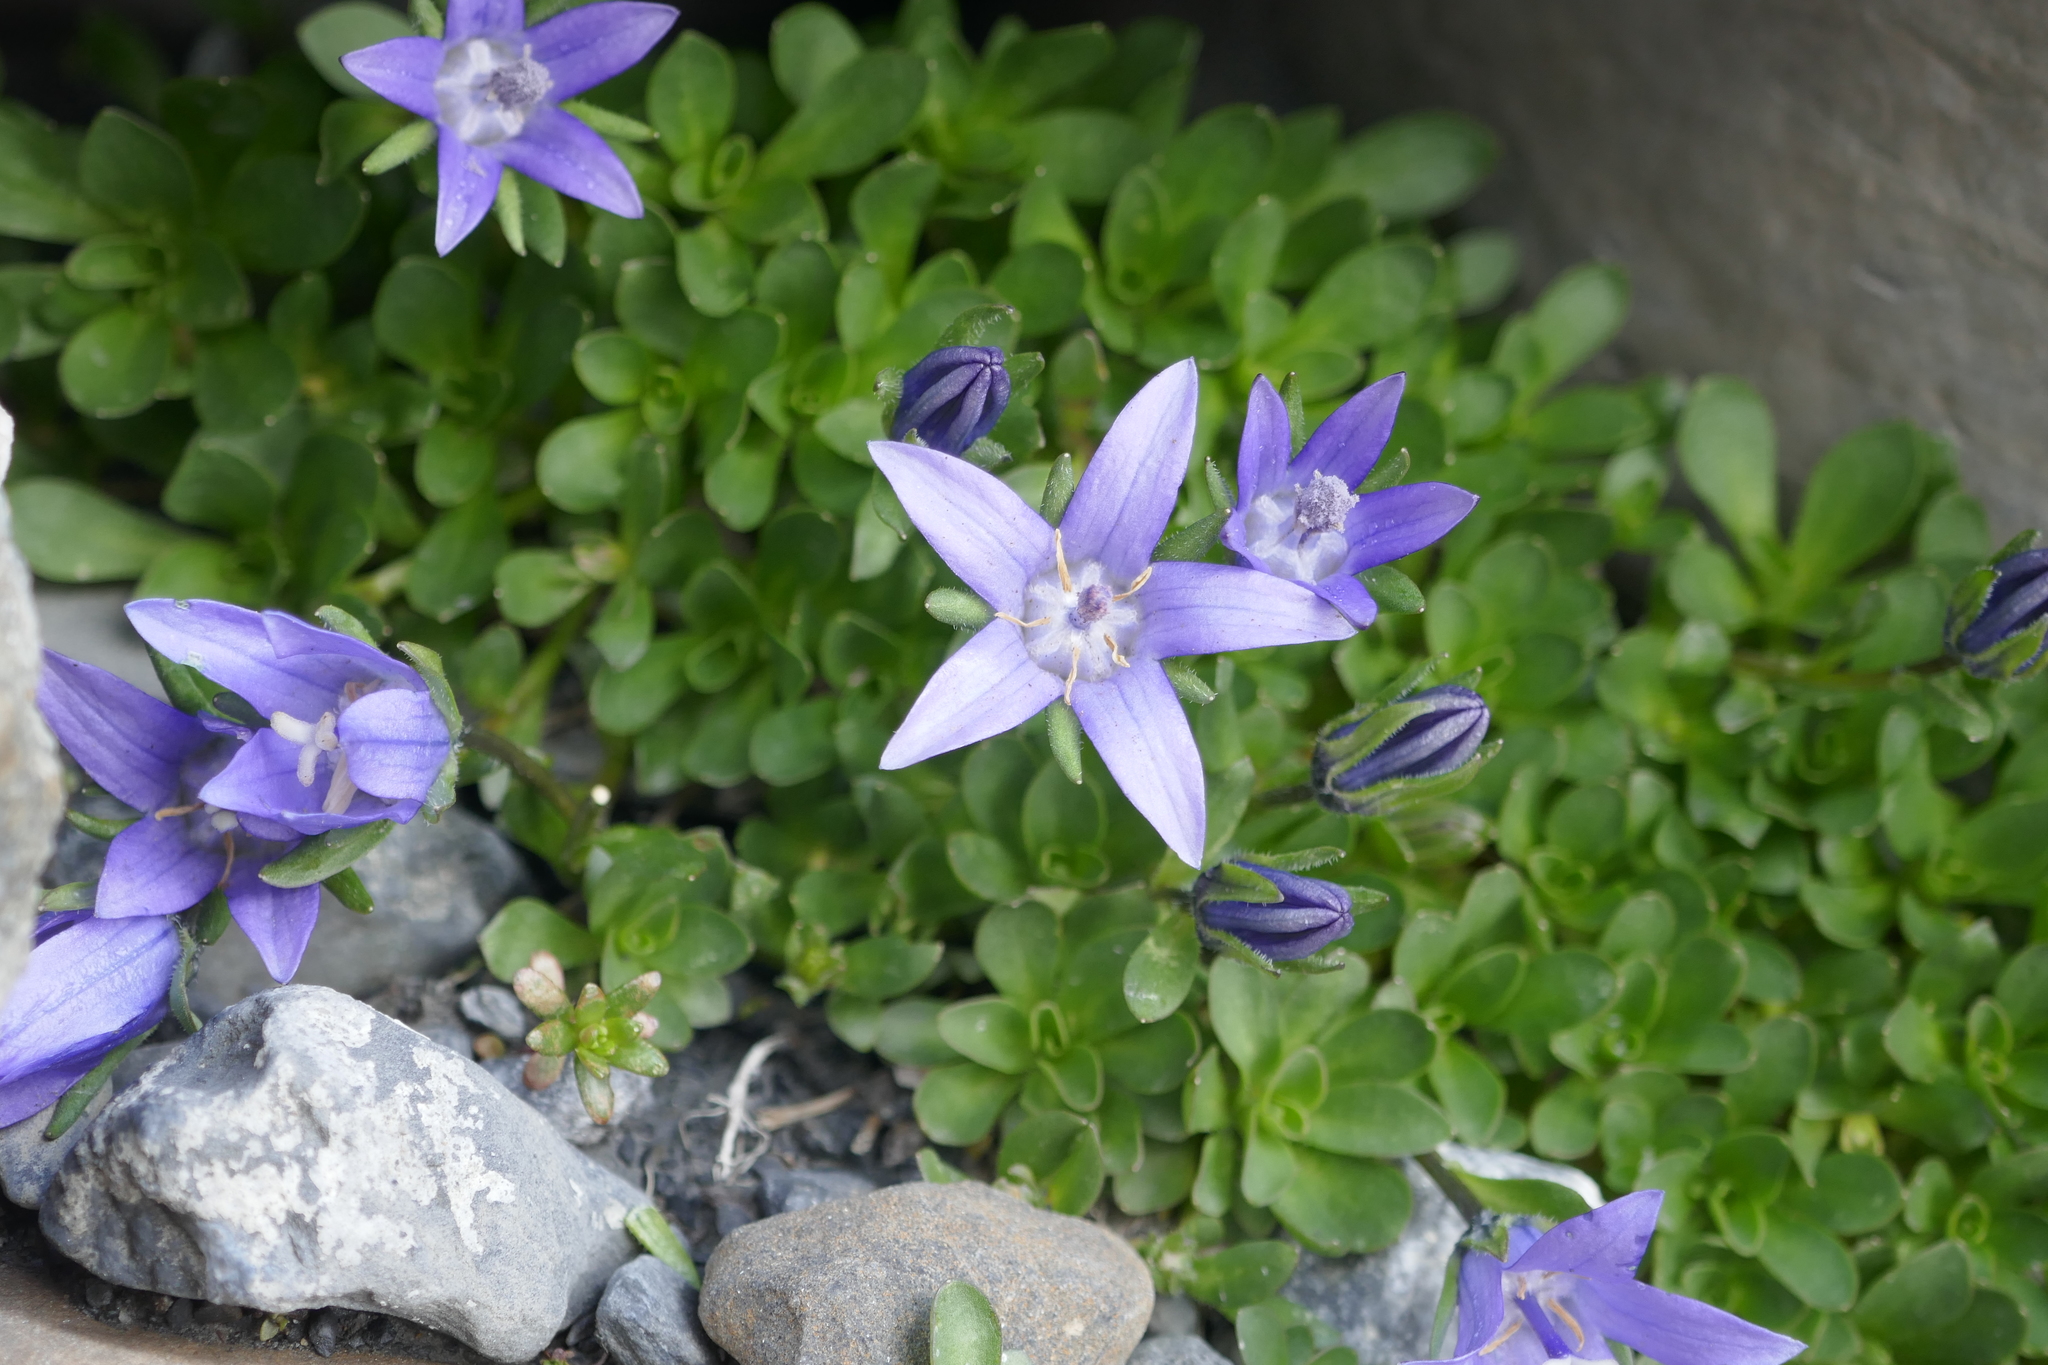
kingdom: Plantae
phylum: Tracheophyta
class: Magnoliopsida
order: Asterales
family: Campanulaceae
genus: Campanula
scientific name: Campanula cenisia
